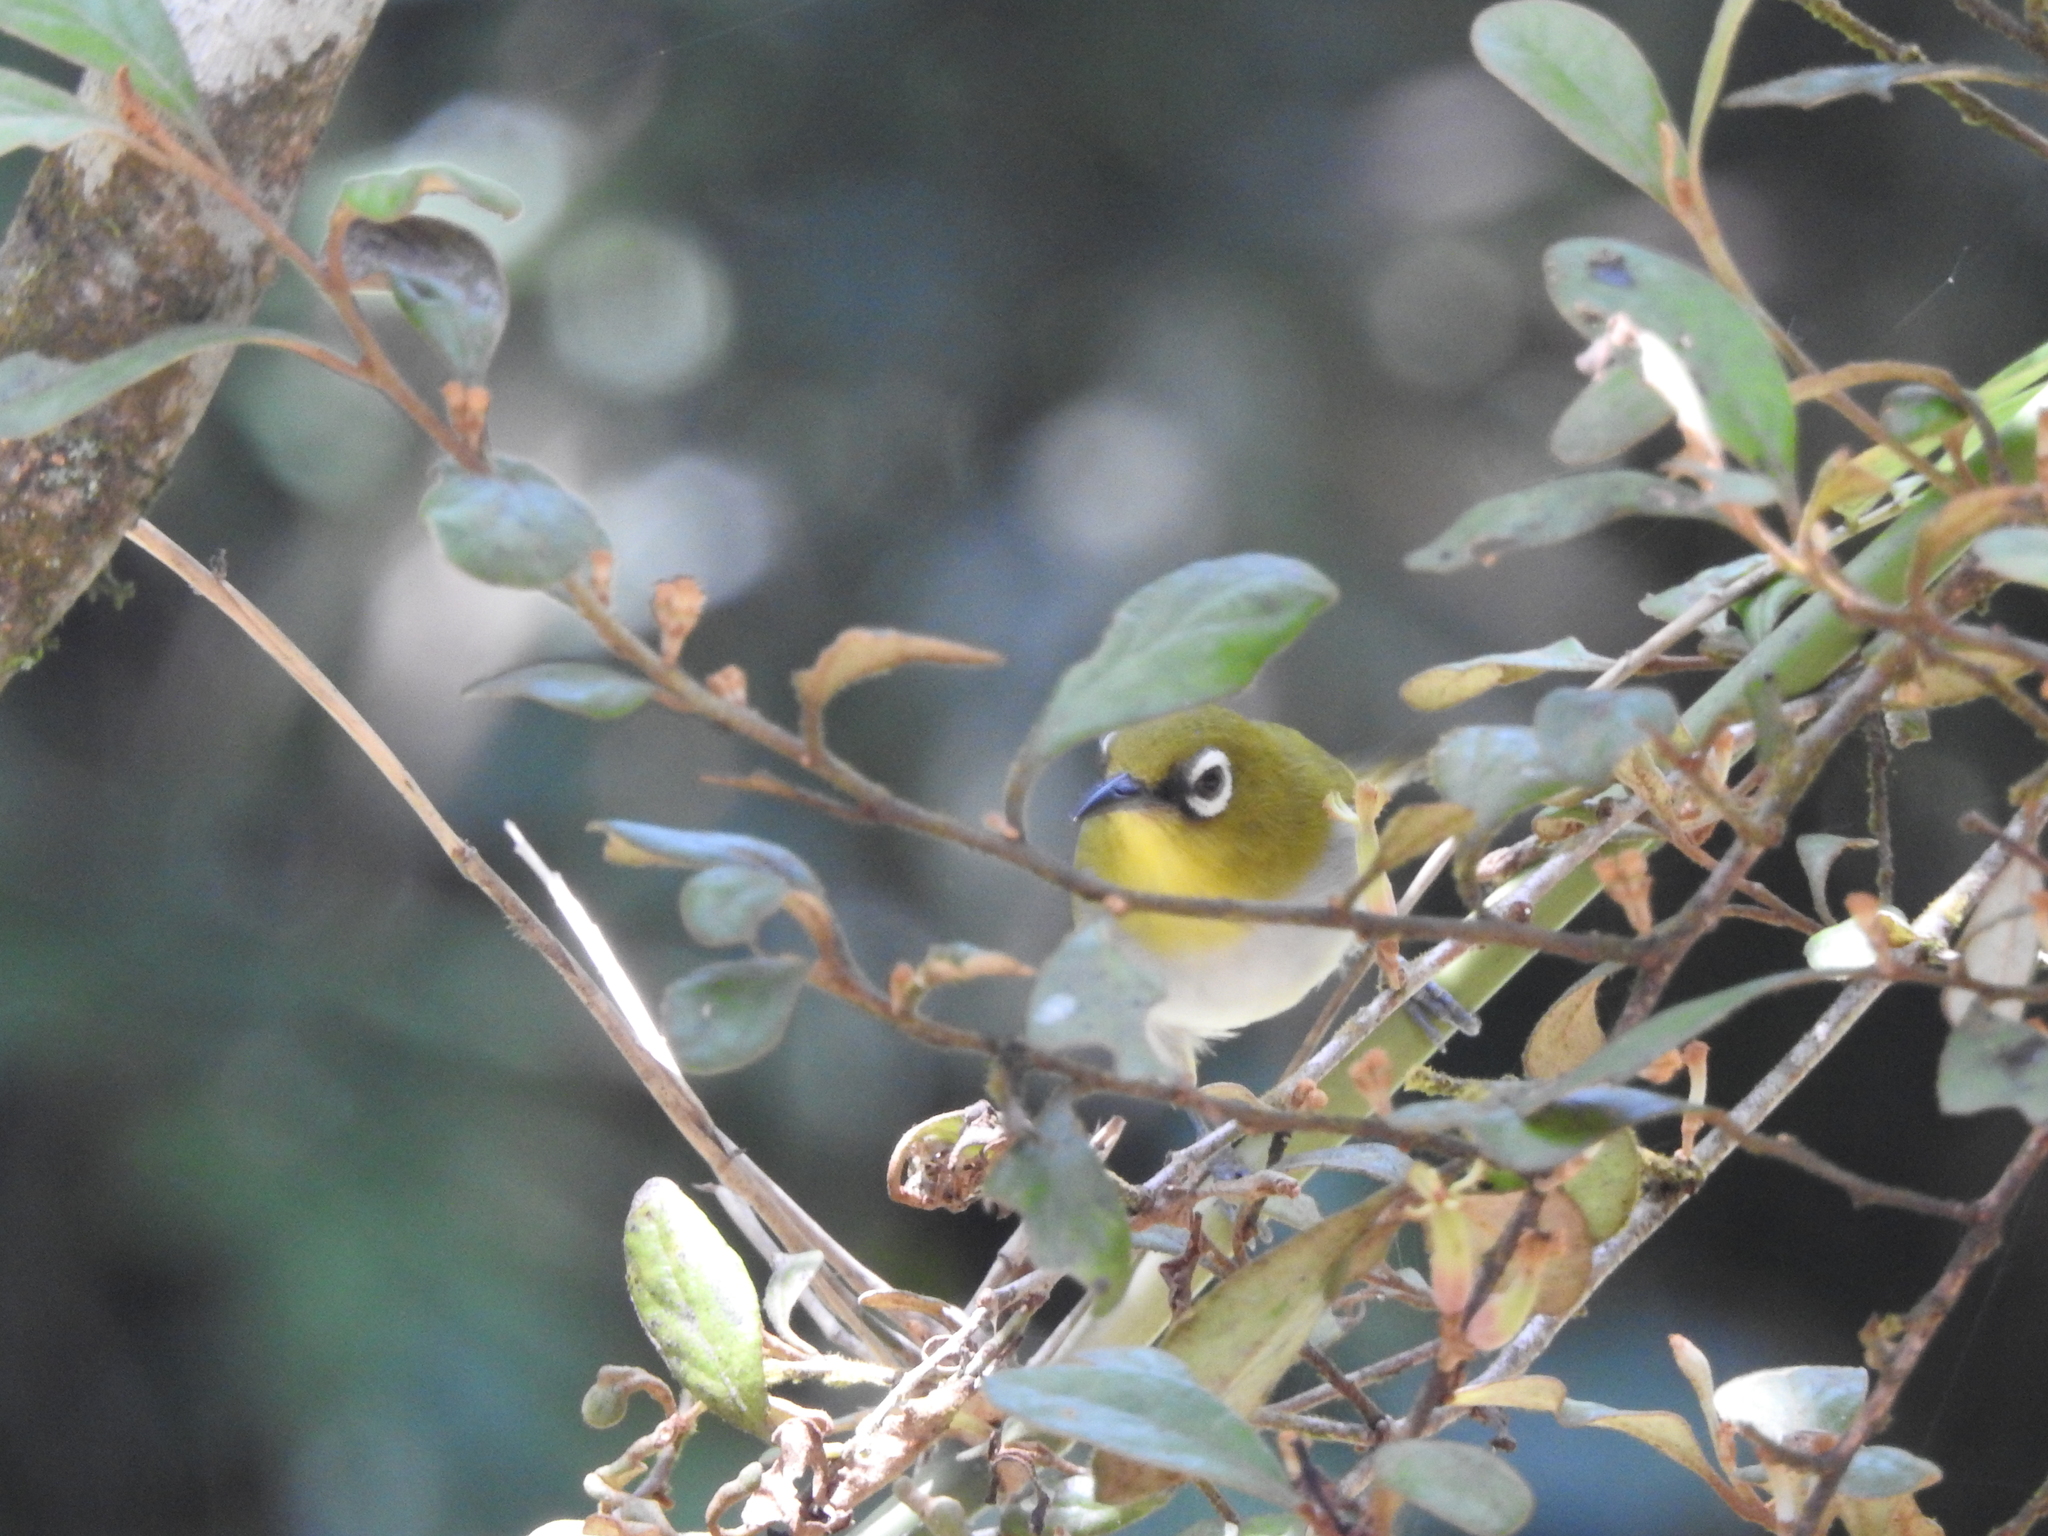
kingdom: Animalia
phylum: Chordata
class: Aves
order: Passeriformes
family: Zosteropidae
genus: Zosterops
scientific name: Zosterops palpebrosus
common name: Oriental white-eye
